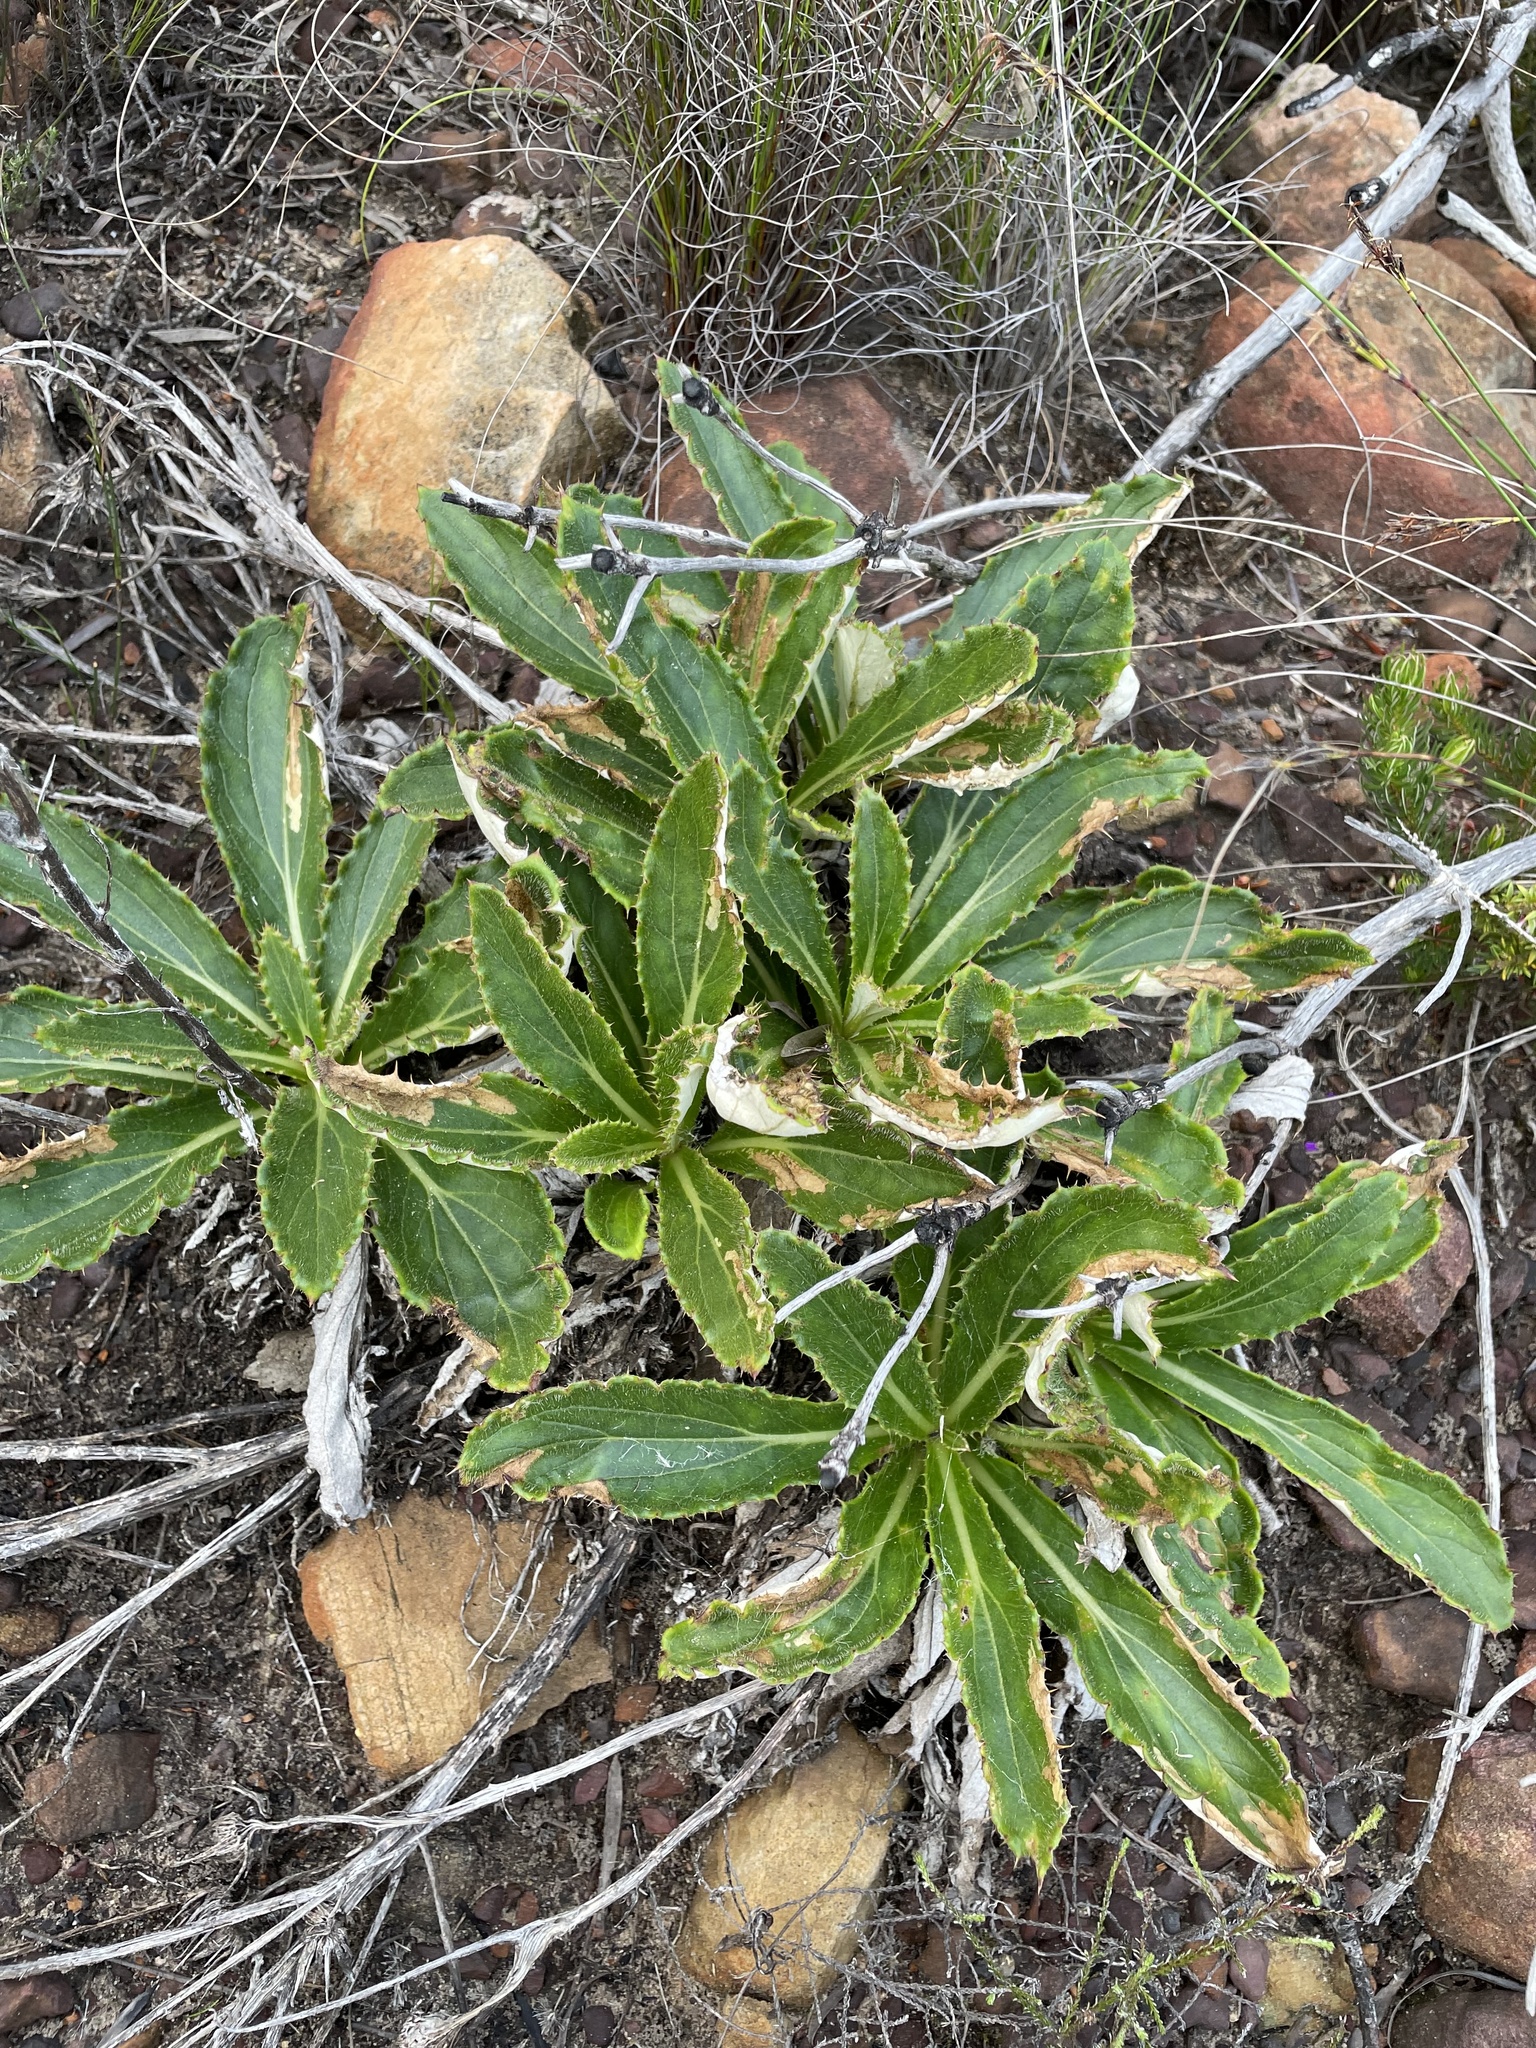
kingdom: Plantae
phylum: Tracheophyta
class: Magnoliopsida
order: Asterales
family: Asteraceae
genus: Berkheya
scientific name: Berkheya armata
